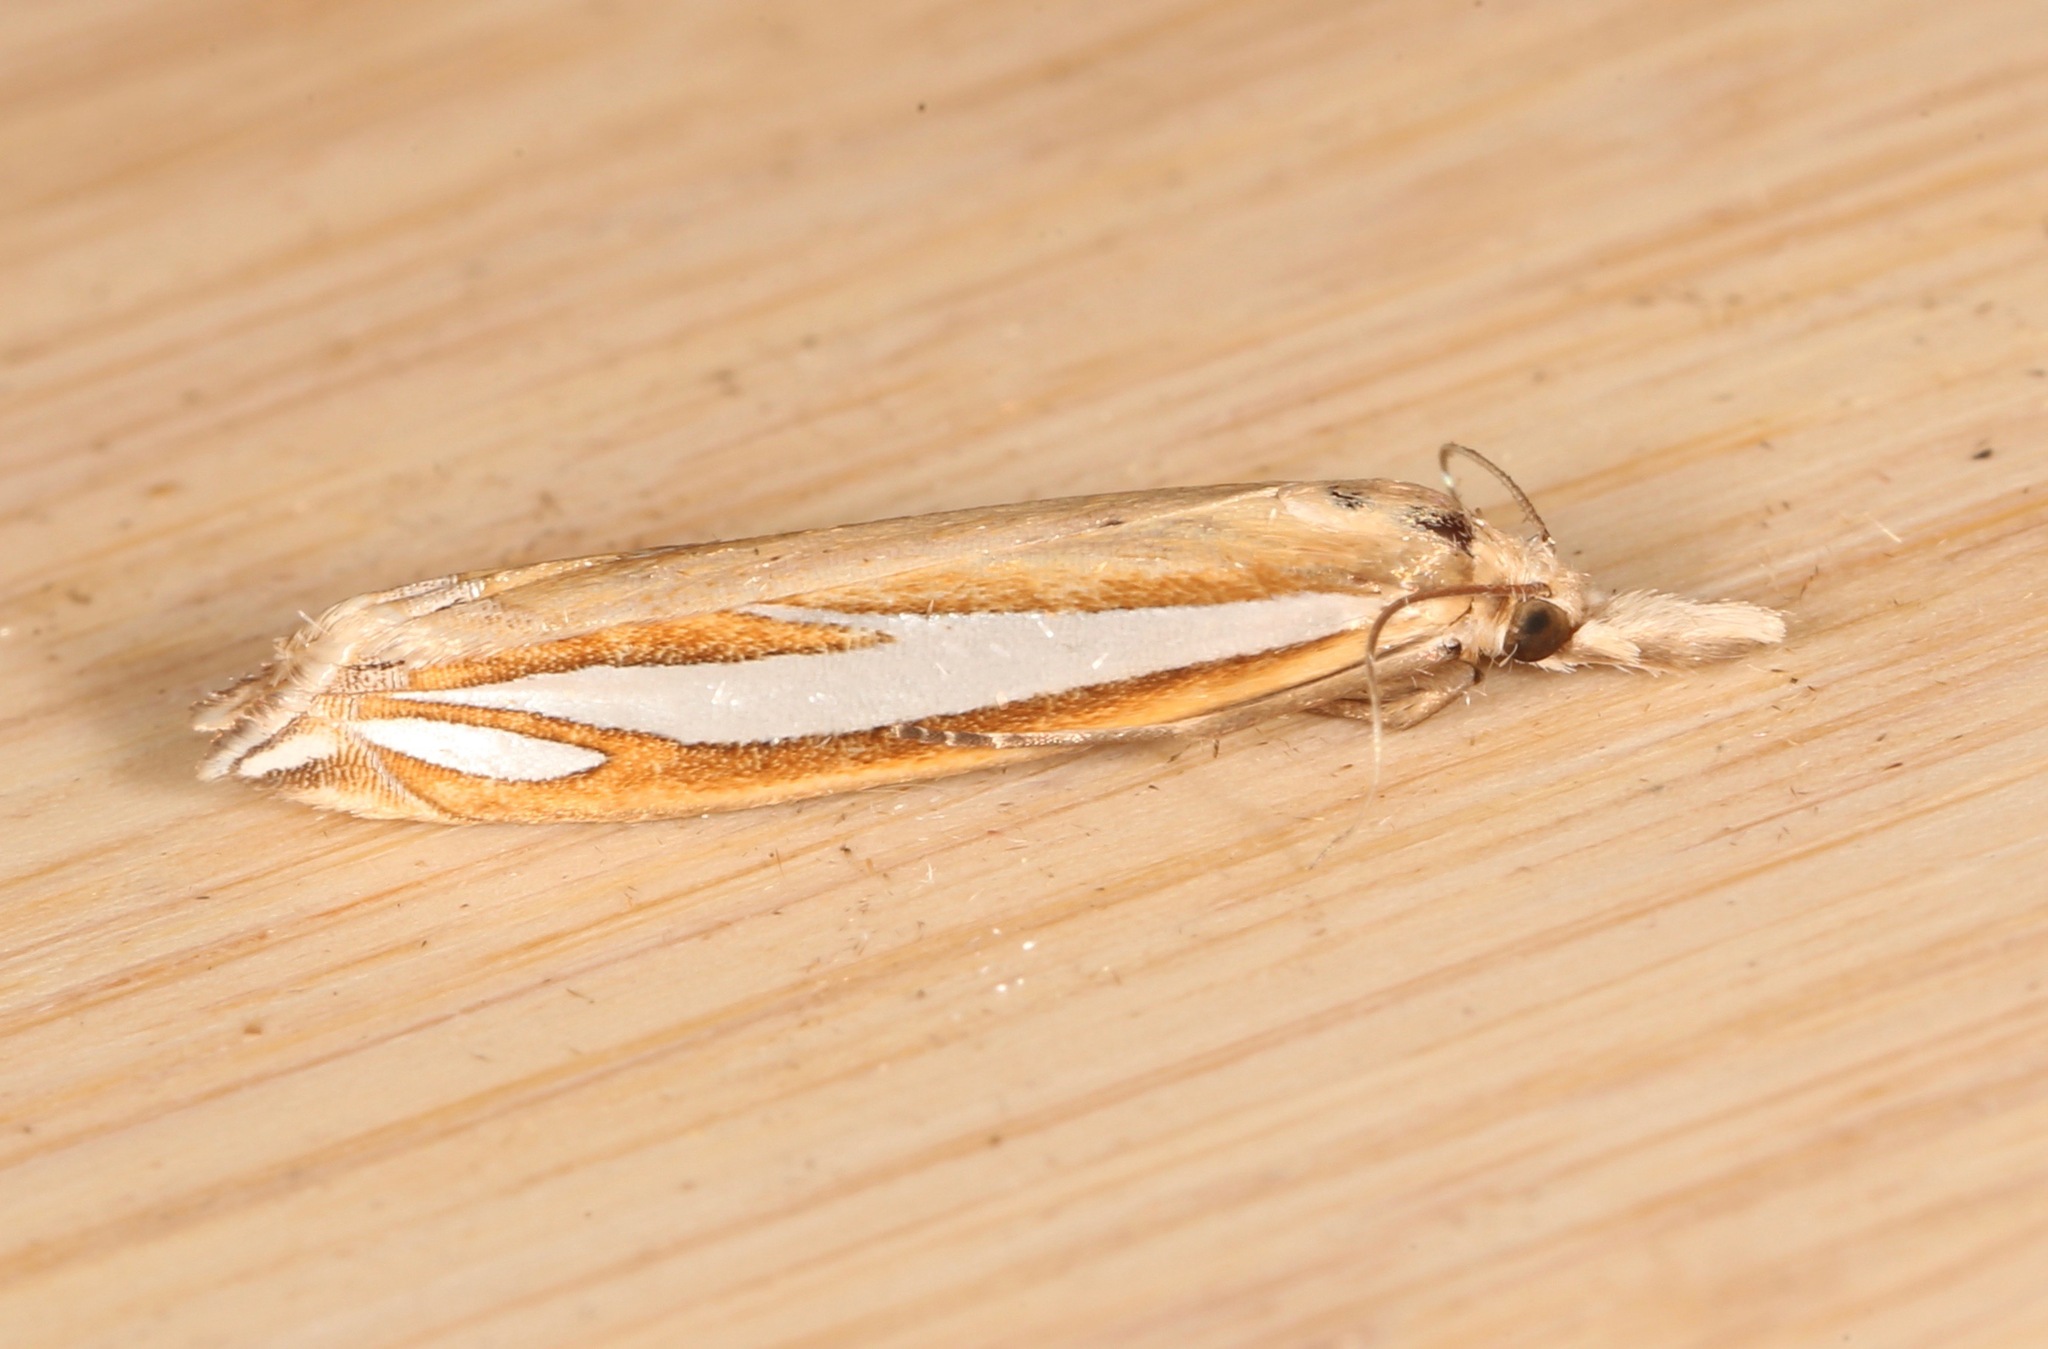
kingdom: Animalia
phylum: Arthropoda
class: Insecta
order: Lepidoptera
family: Crambidae
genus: Crambus
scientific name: Crambus satrapellus
